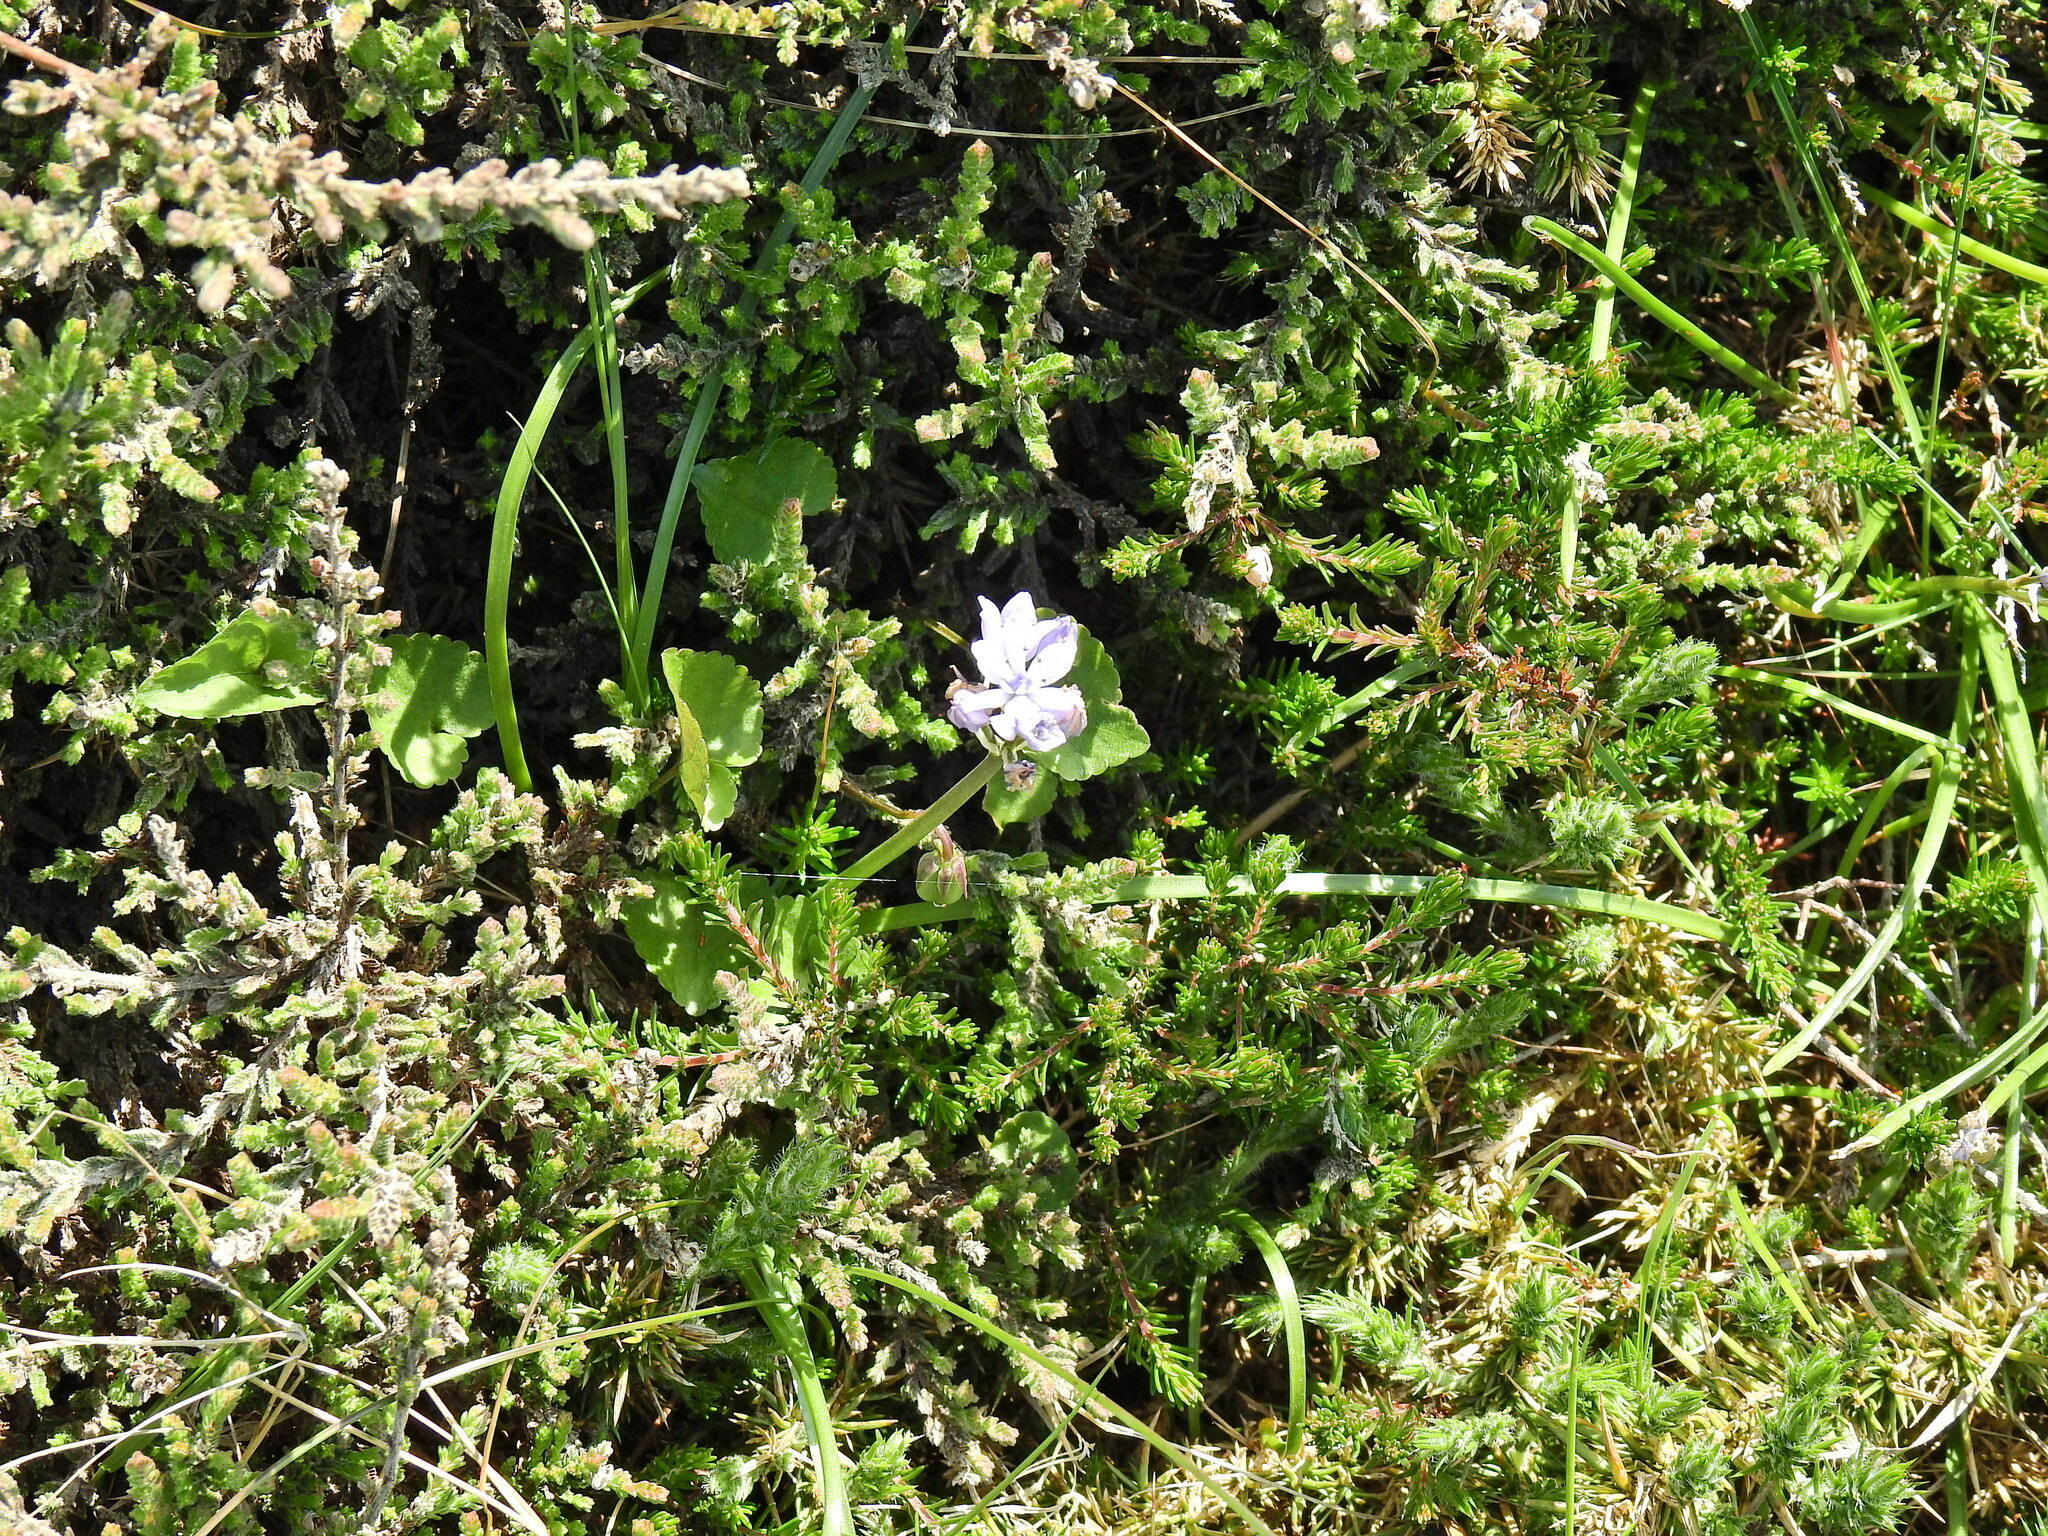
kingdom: Plantae
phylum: Tracheophyta
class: Liliopsida
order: Asparagales
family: Asparagaceae
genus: Scilla
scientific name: Scilla verna
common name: Spring squill
